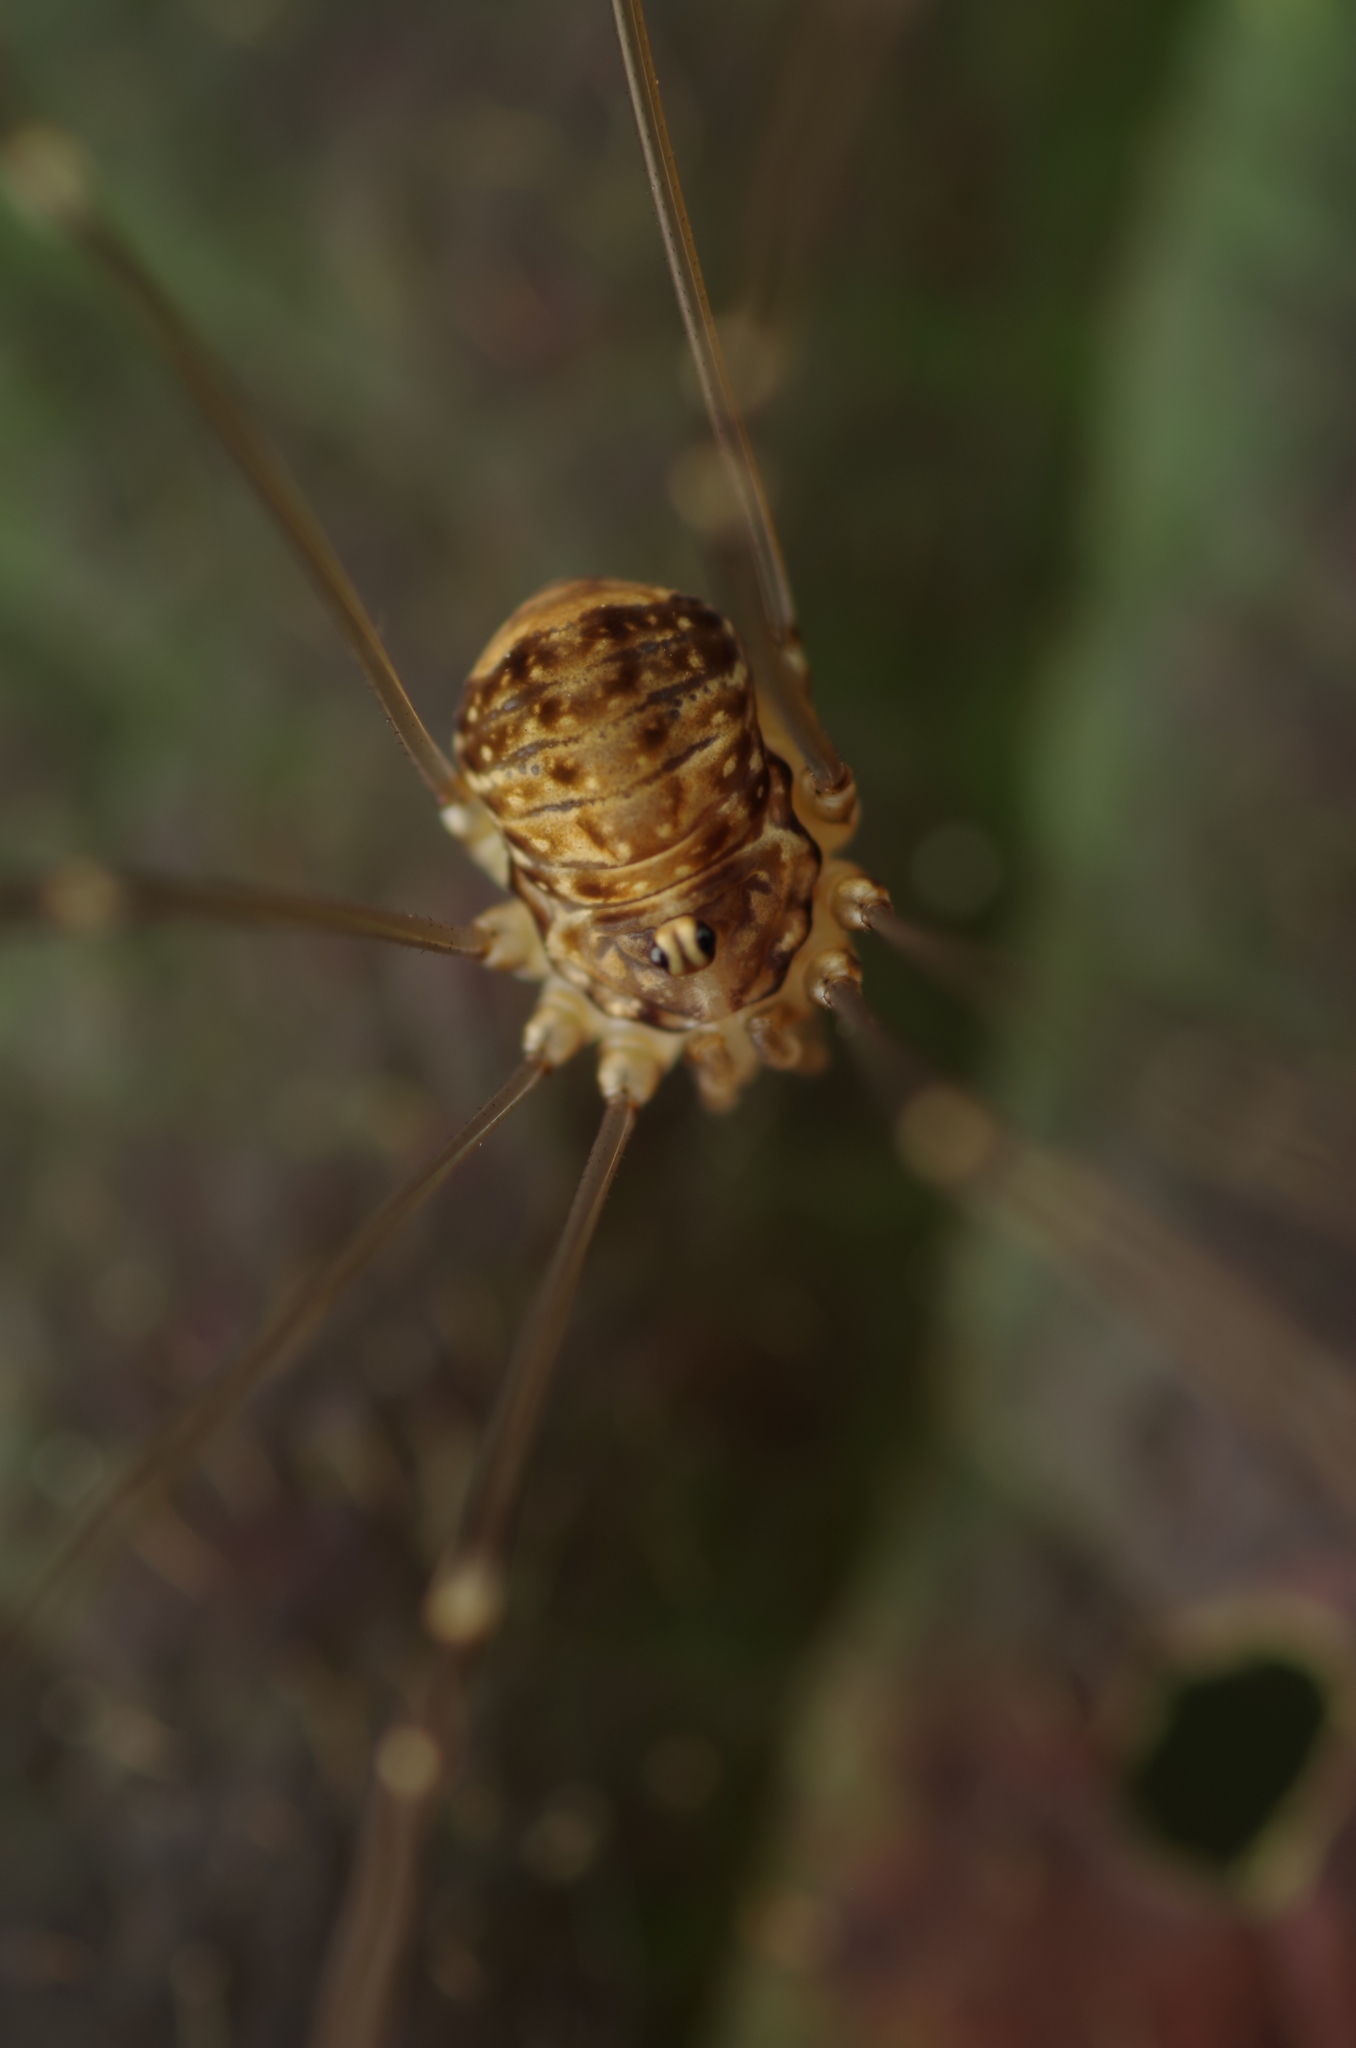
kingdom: Animalia
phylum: Arthropoda
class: Arachnida
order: Opiliones
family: Sclerosomatidae
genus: Leiobunum
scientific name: Leiobunum blackwalli
